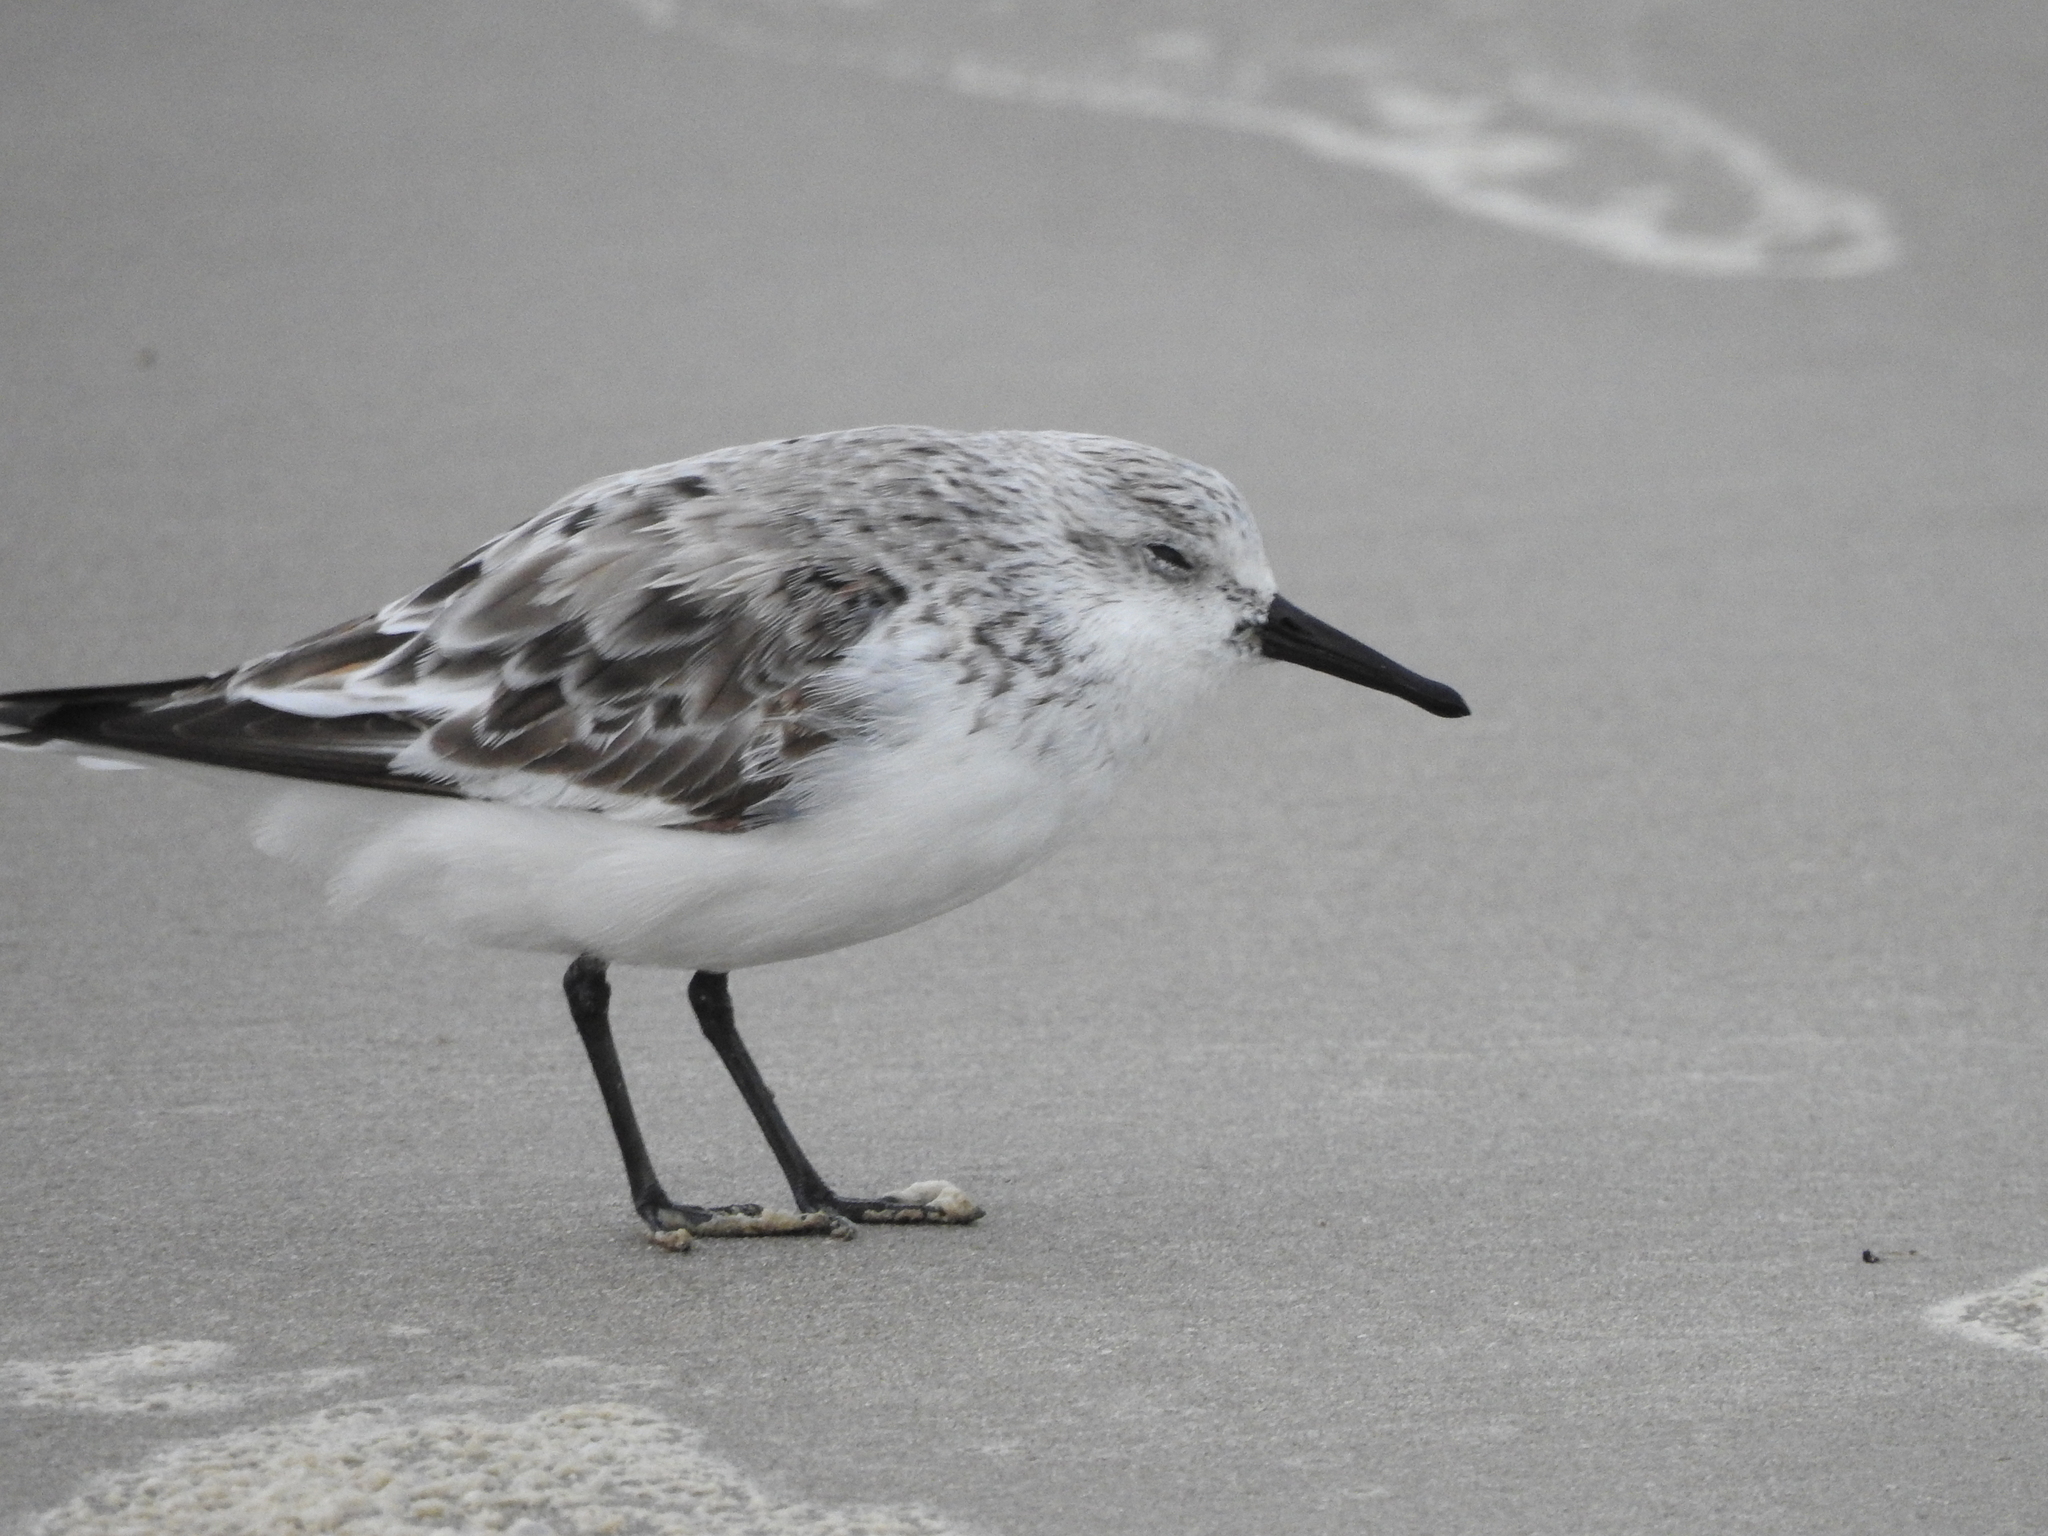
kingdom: Animalia
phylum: Chordata
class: Aves
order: Charadriiformes
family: Scolopacidae
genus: Calidris
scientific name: Calidris alba
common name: Sanderling
